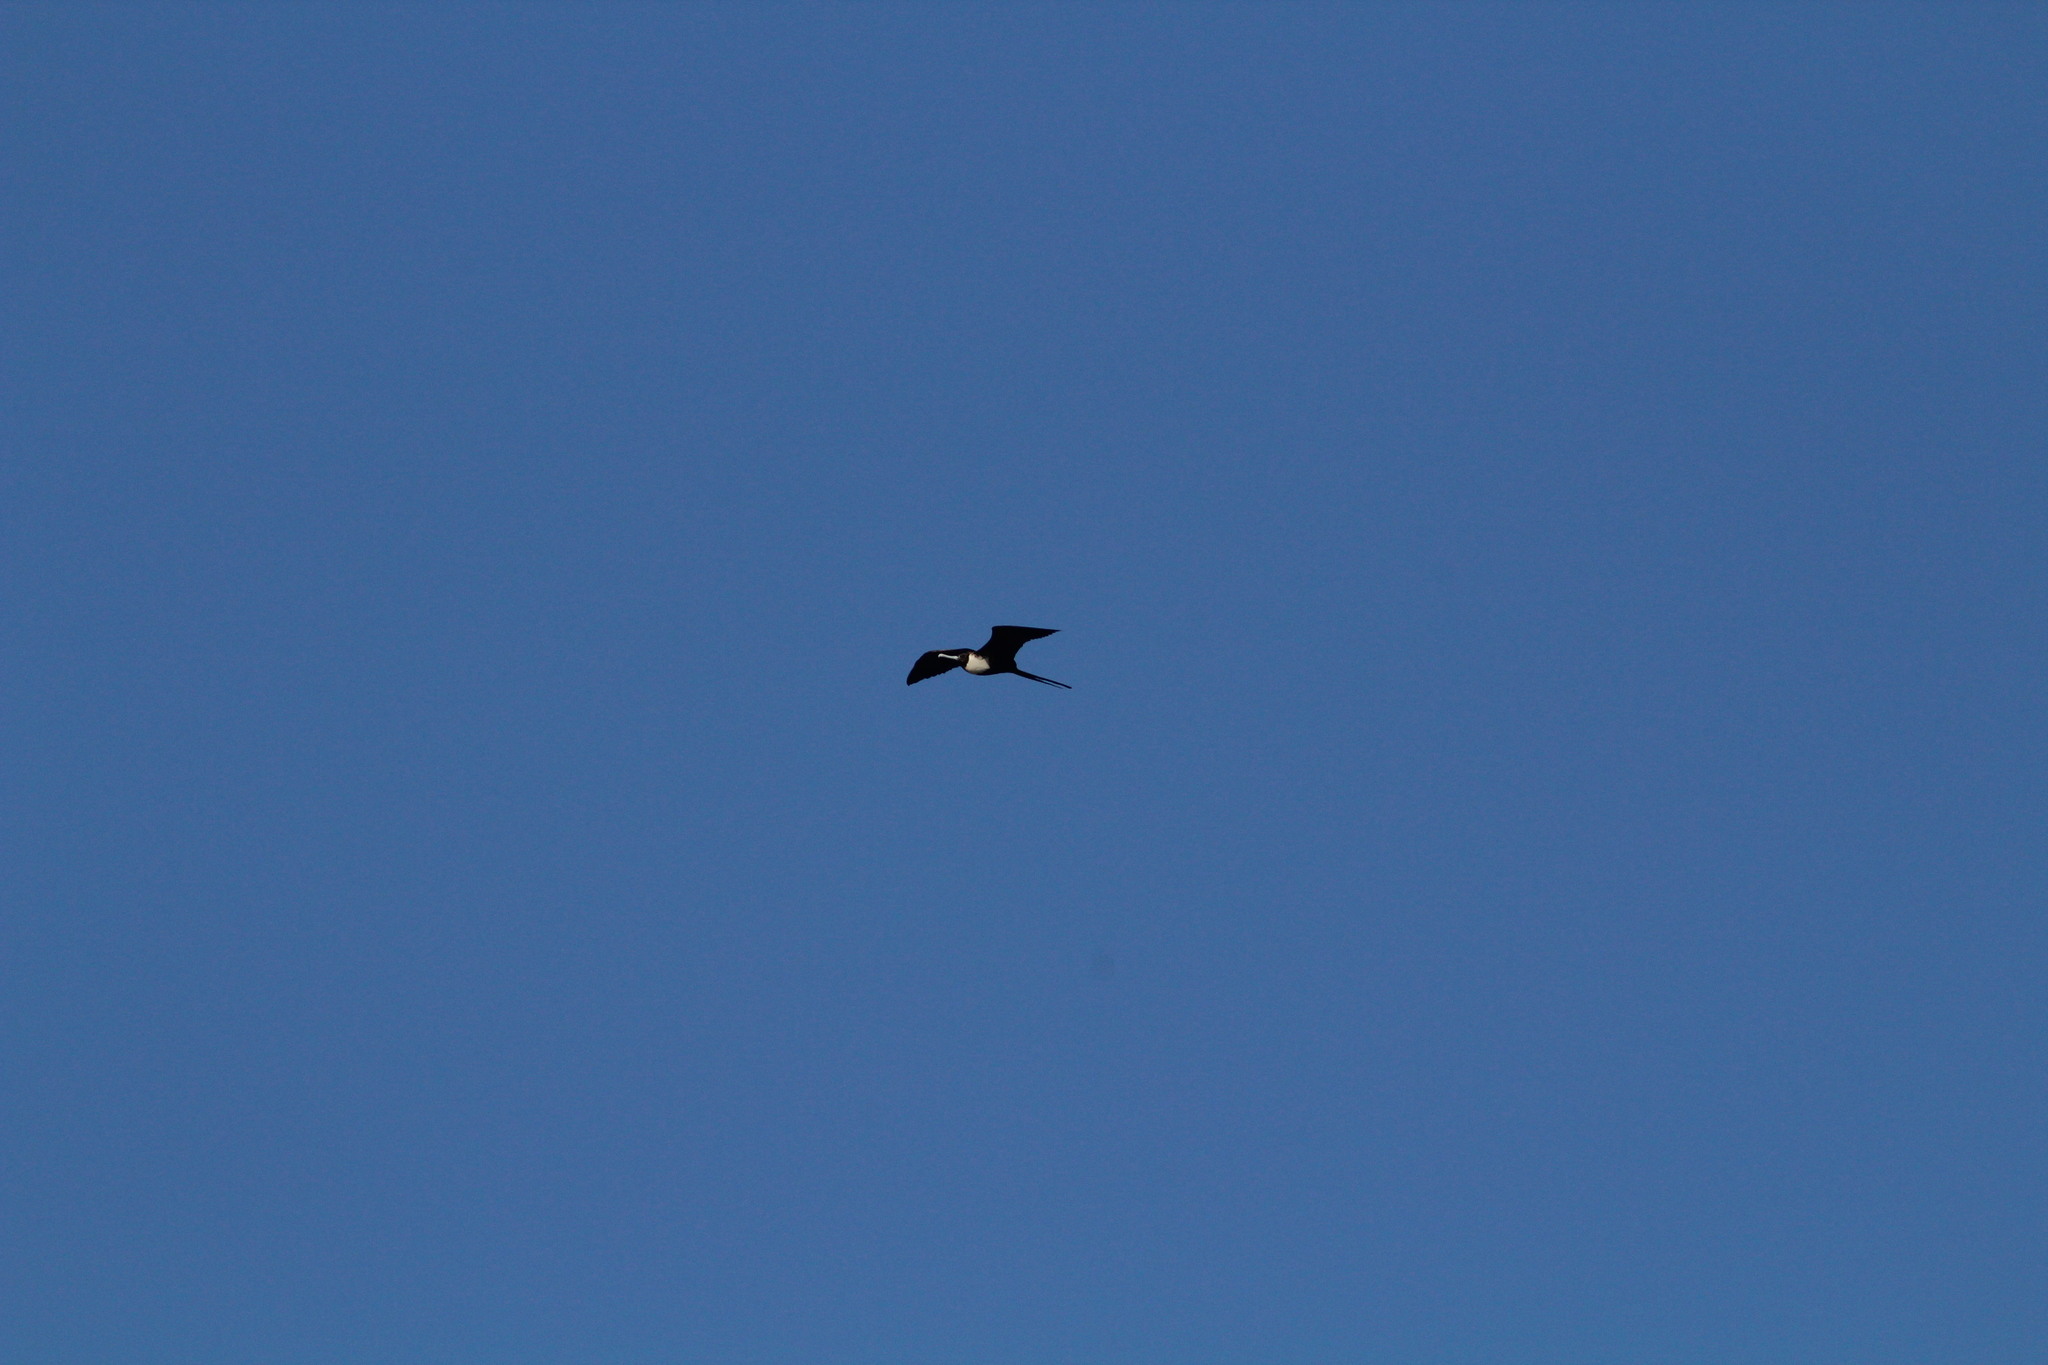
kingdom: Animalia
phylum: Chordata
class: Aves
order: Suliformes
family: Fregatidae
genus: Fregata
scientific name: Fregata magnificens
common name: Magnificent frigatebird
